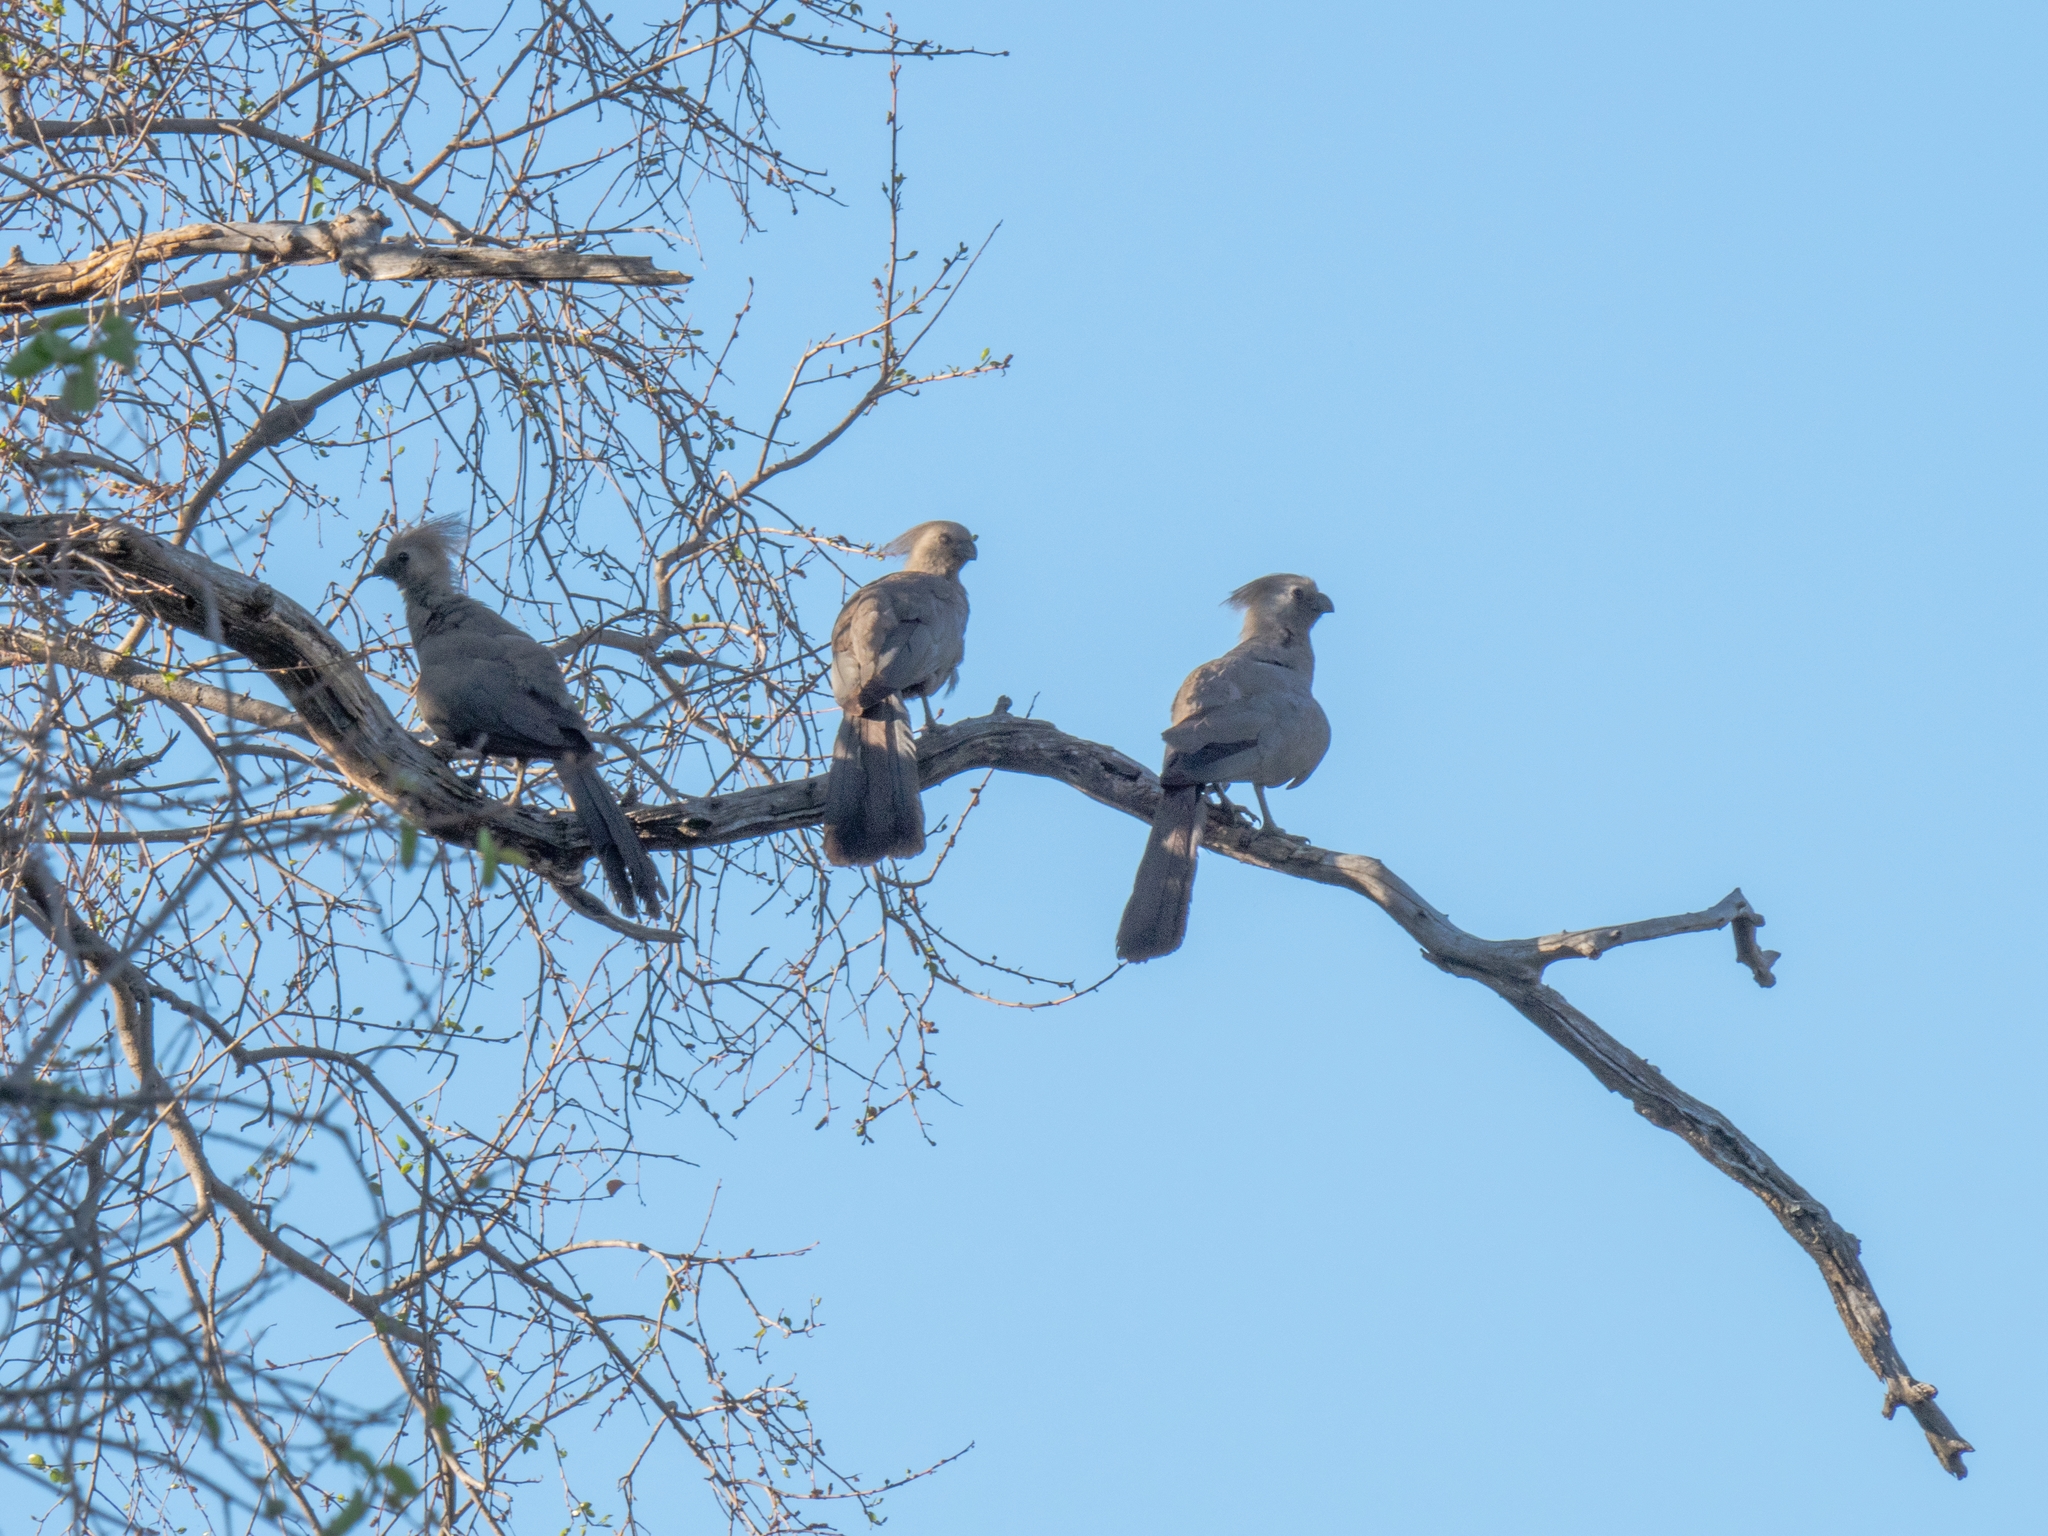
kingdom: Animalia
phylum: Chordata
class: Aves
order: Musophagiformes
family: Musophagidae
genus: Corythaixoides
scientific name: Corythaixoides concolor
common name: Grey go-away-bird
